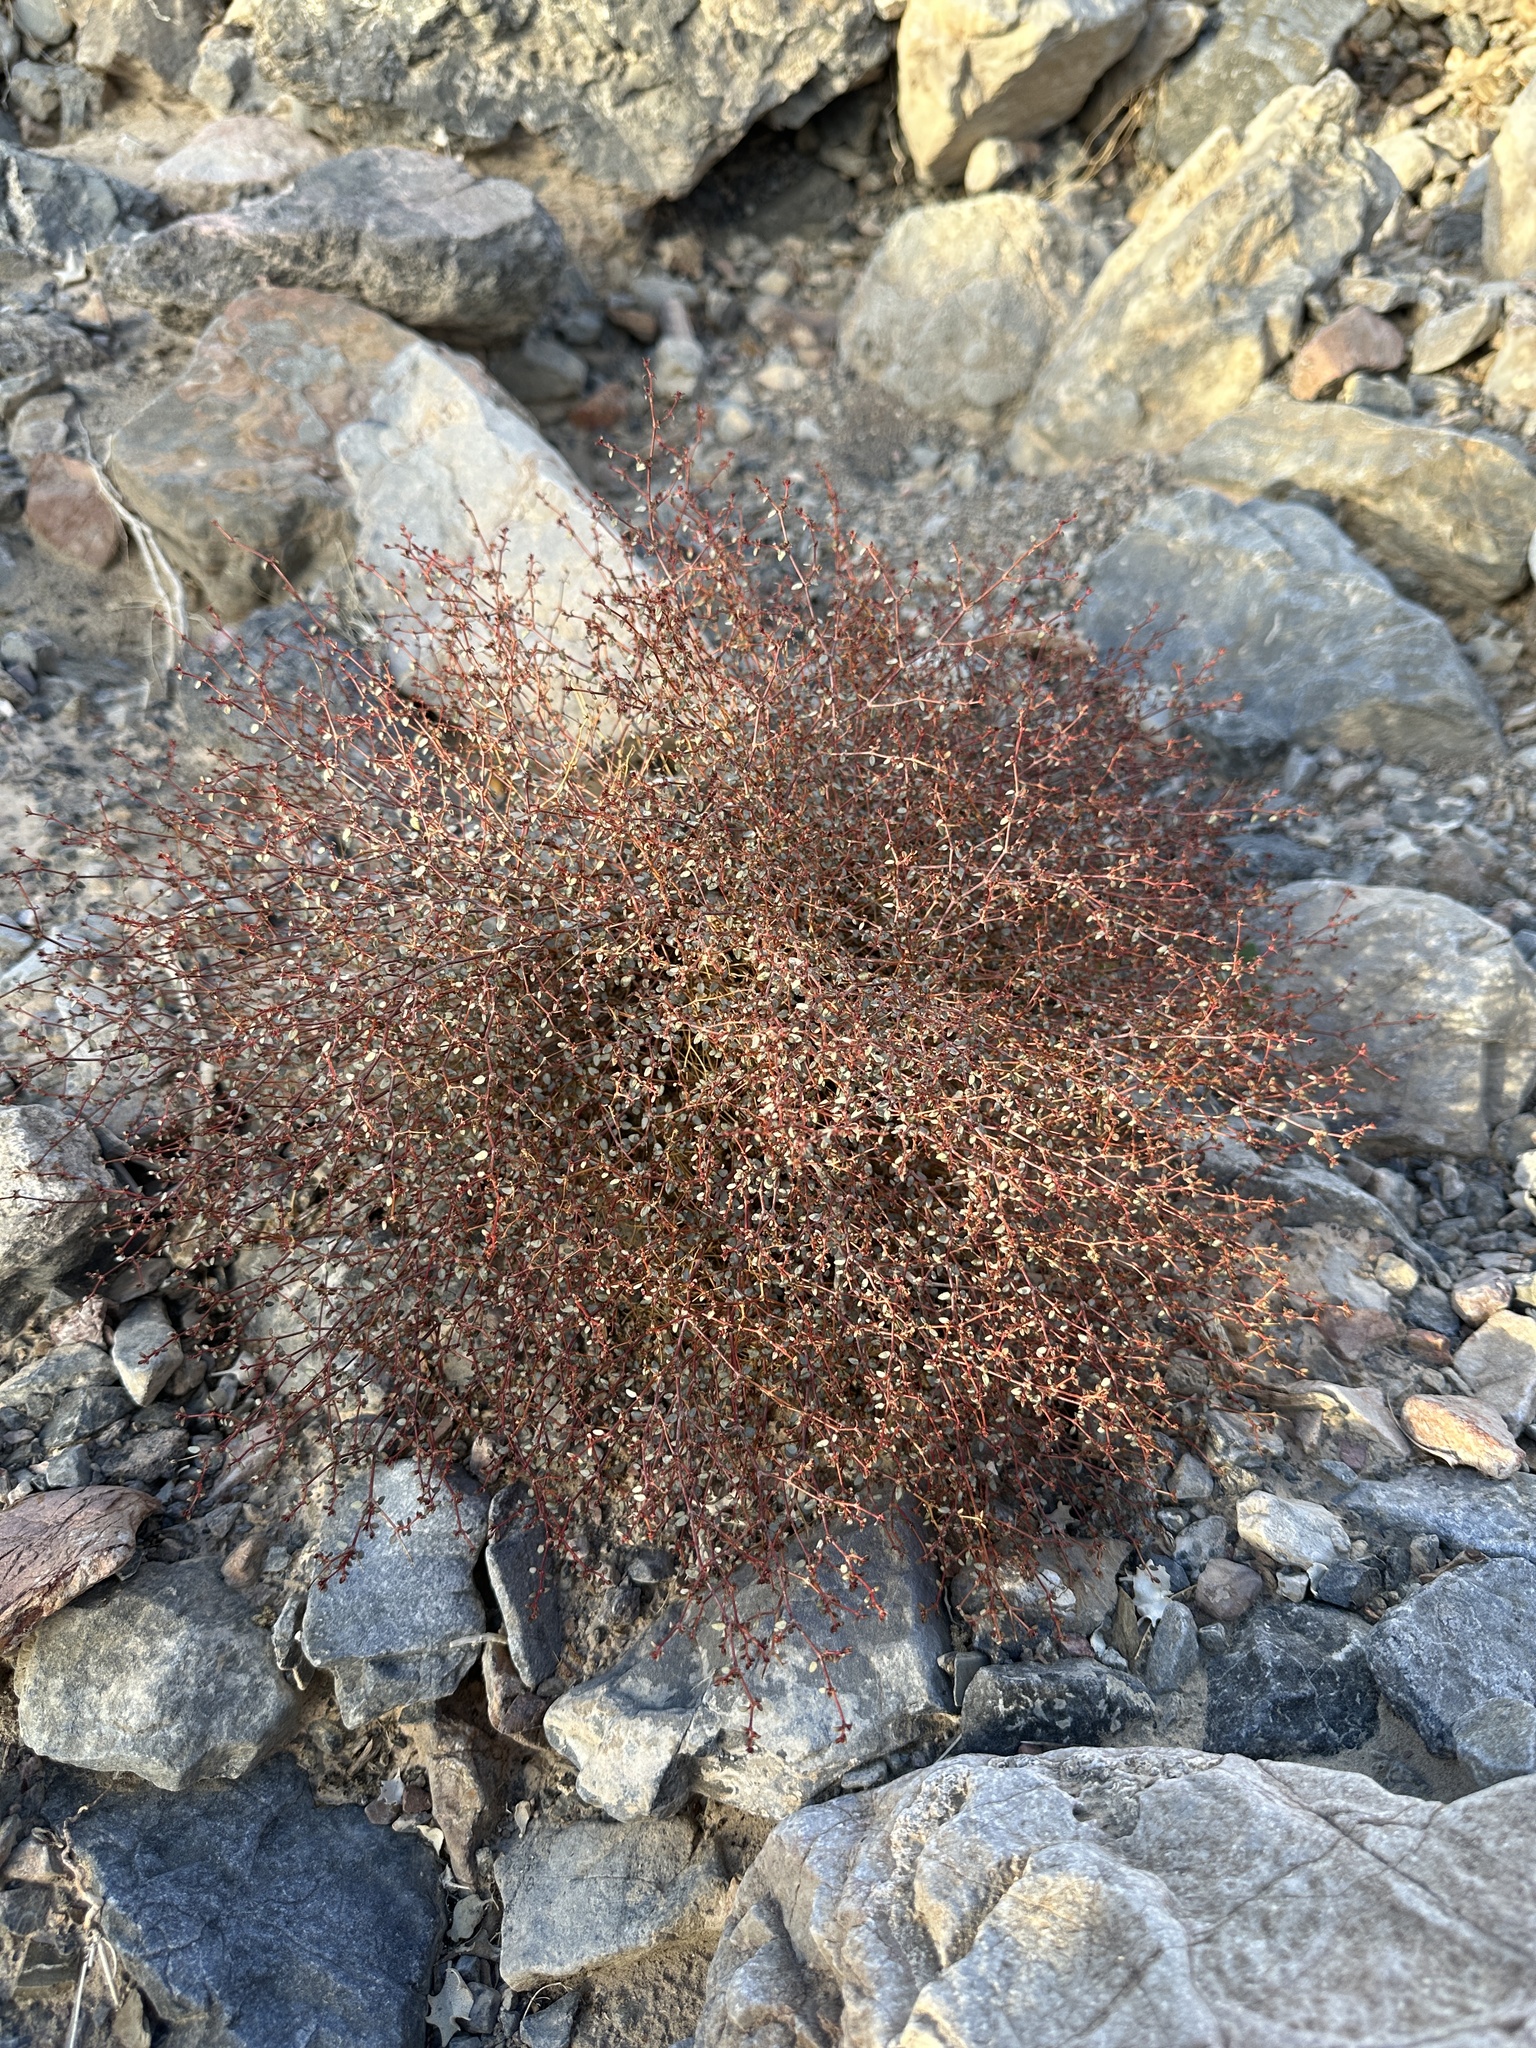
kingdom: Plantae
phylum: Tracheophyta
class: Magnoliopsida
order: Malpighiales
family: Euphorbiaceae
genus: Euphorbia
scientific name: Euphorbia parishii
